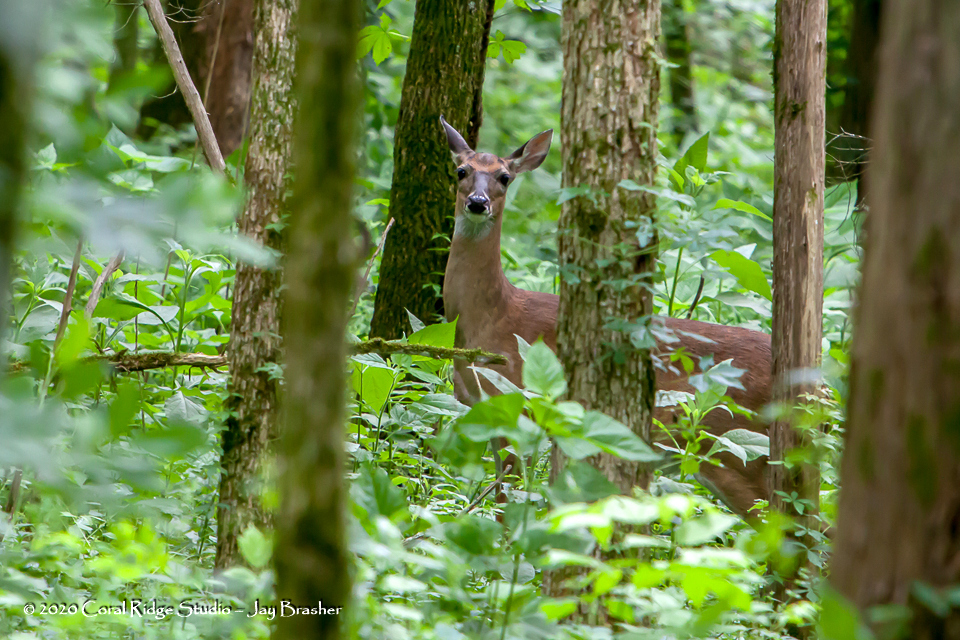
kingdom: Animalia
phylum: Chordata
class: Mammalia
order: Artiodactyla
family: Cervidae
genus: Odocoileus
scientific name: Odocoileus virginianus
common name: White-tailed deer
